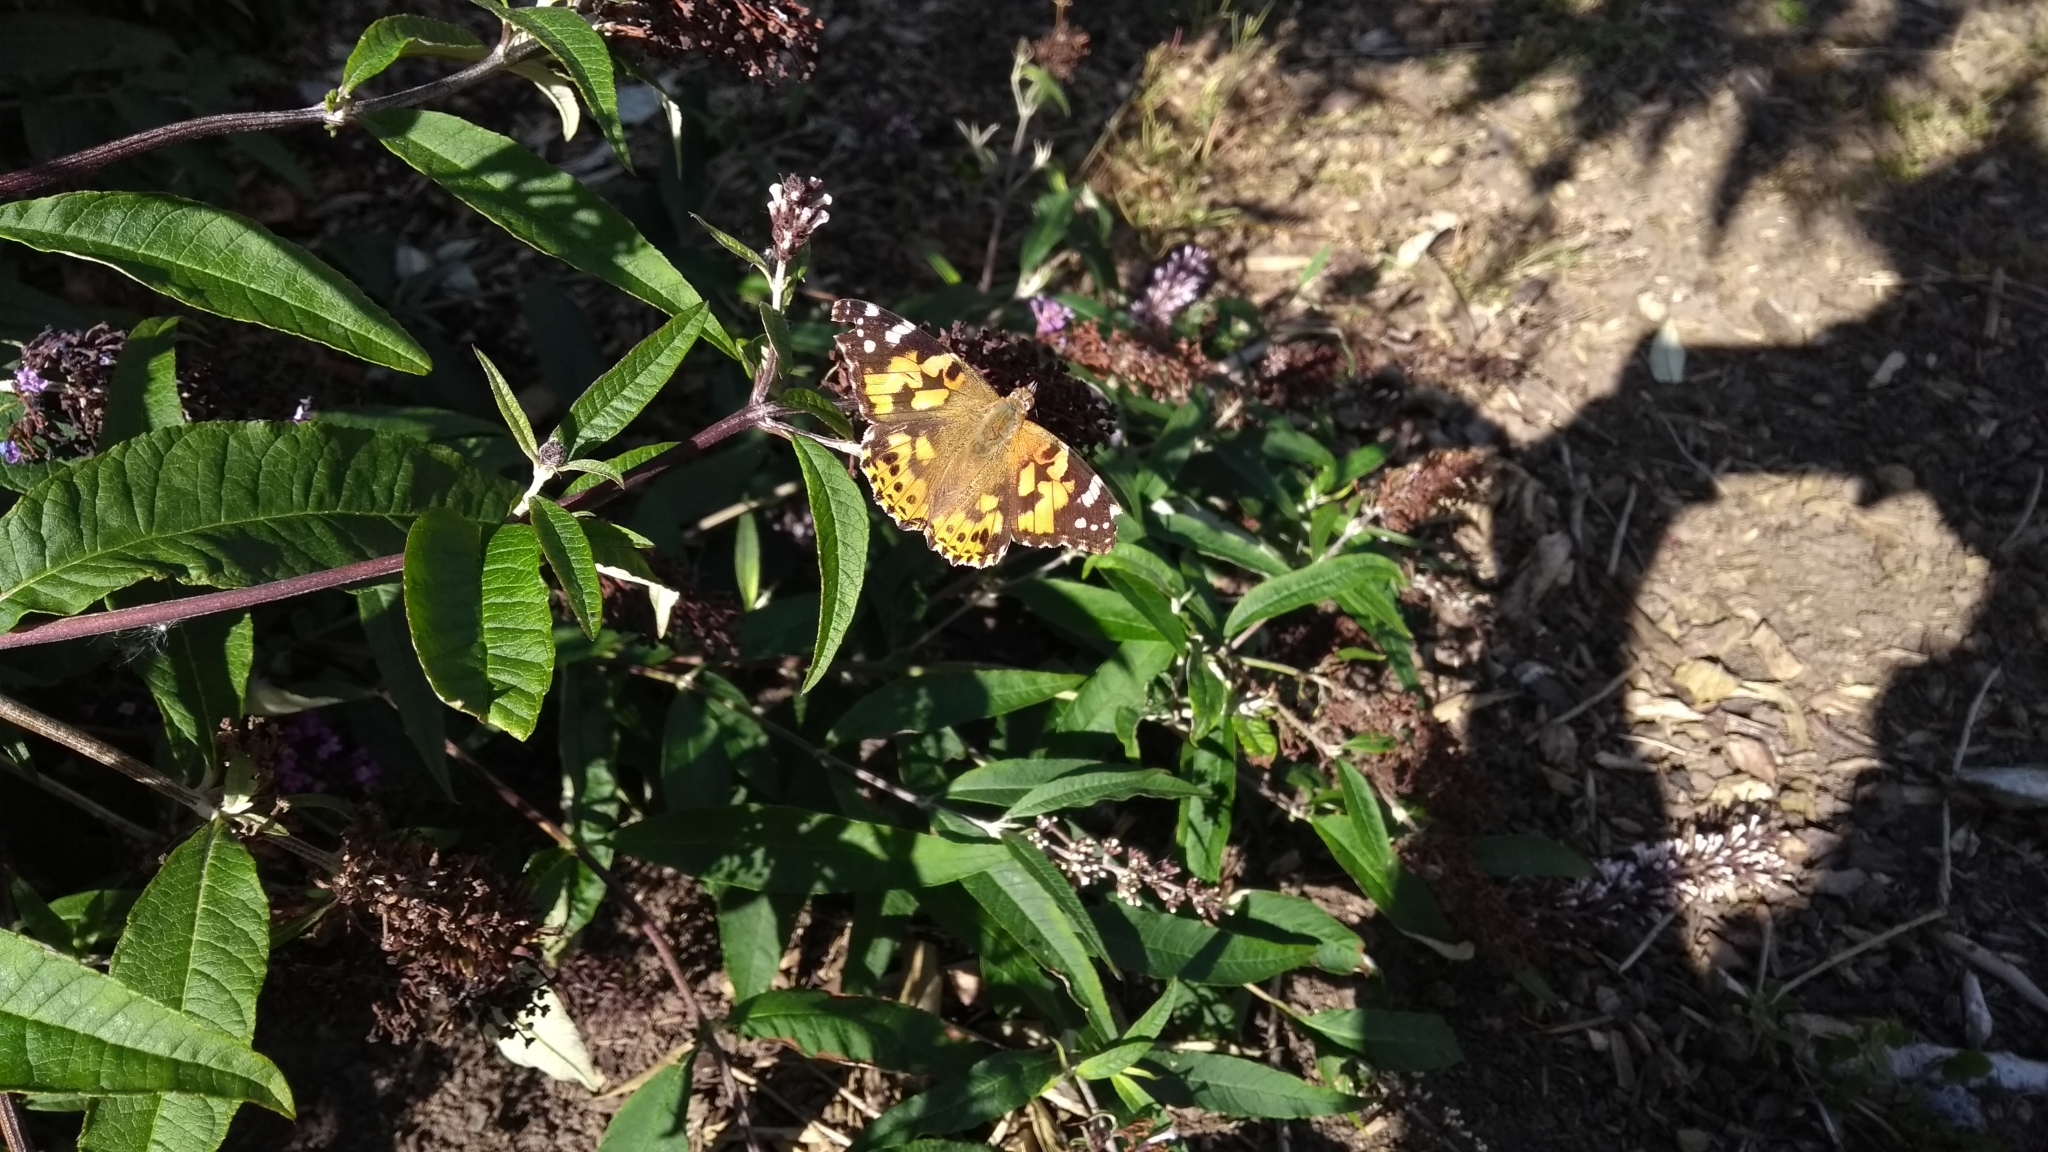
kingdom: Animalia
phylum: Arthropoda
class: Insecta
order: Lepidoptera
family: Nymphalidae
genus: Vanessa
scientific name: Vanessa cardui
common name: Painted lady
